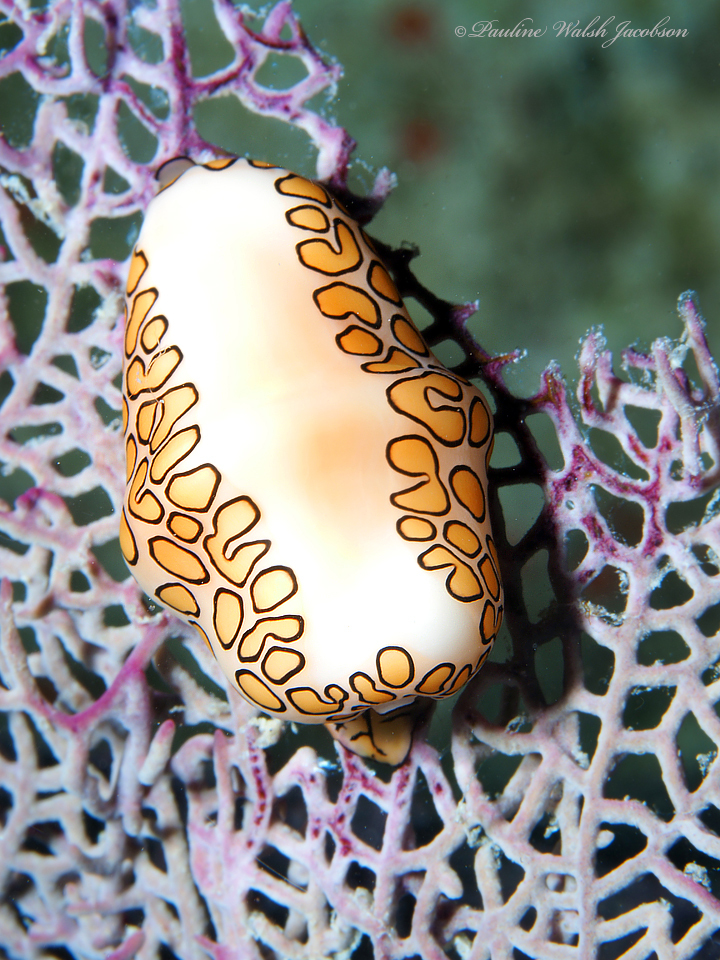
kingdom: Animalia
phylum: Mollusca
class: Gastropoda
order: Littorinimorpha
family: Ovulidae
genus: Cyphoma
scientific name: Cyphoma gibbosum
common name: Flamingo tongue
